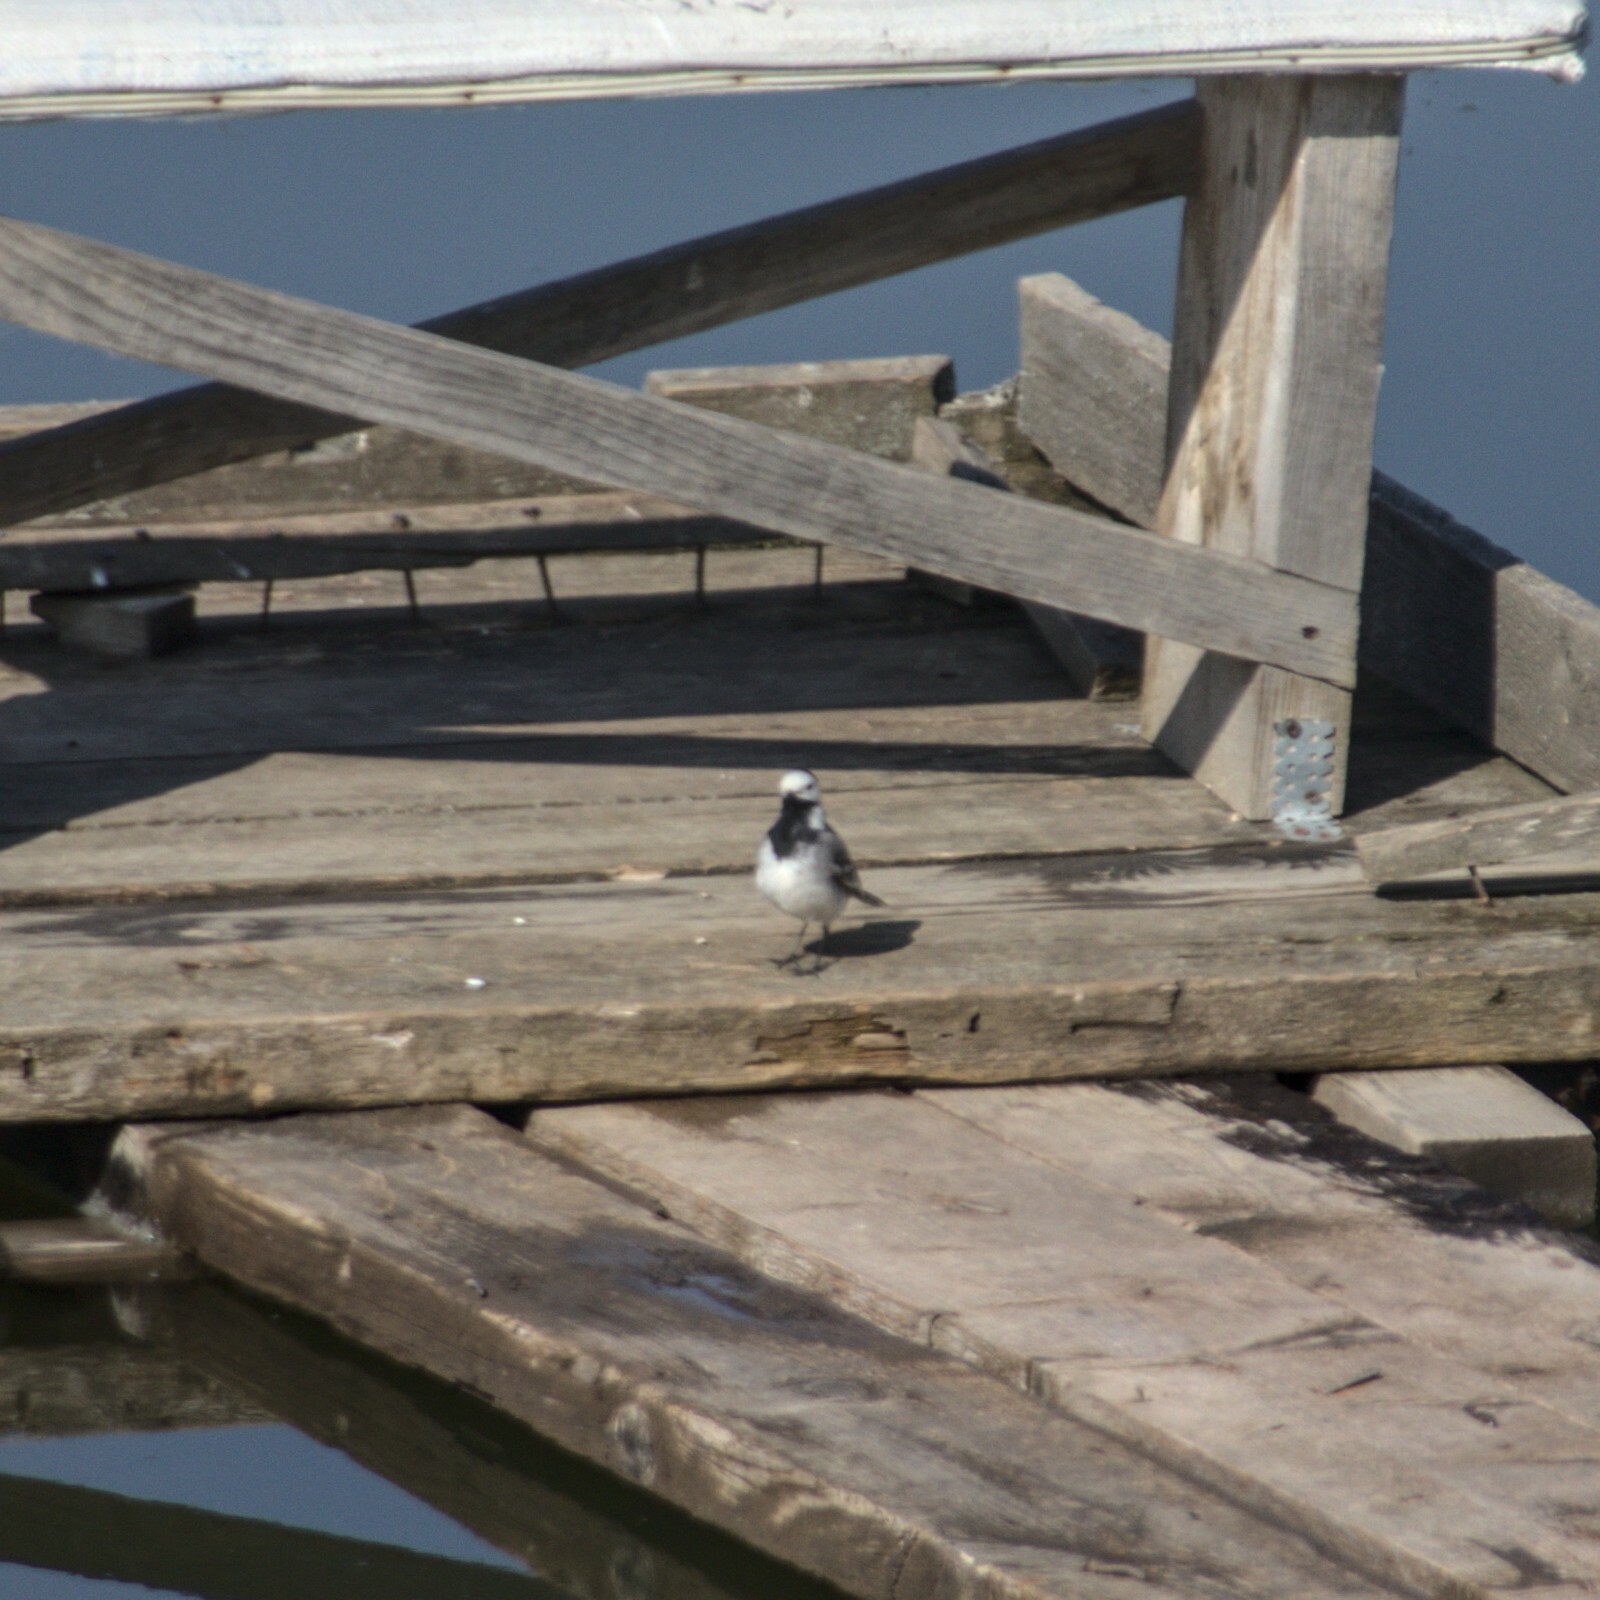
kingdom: Animalia
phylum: Chordata
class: Aves
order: Passeriformes
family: Motacillidae
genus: Motacilla
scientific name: Motacilla alba
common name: White wagtail
